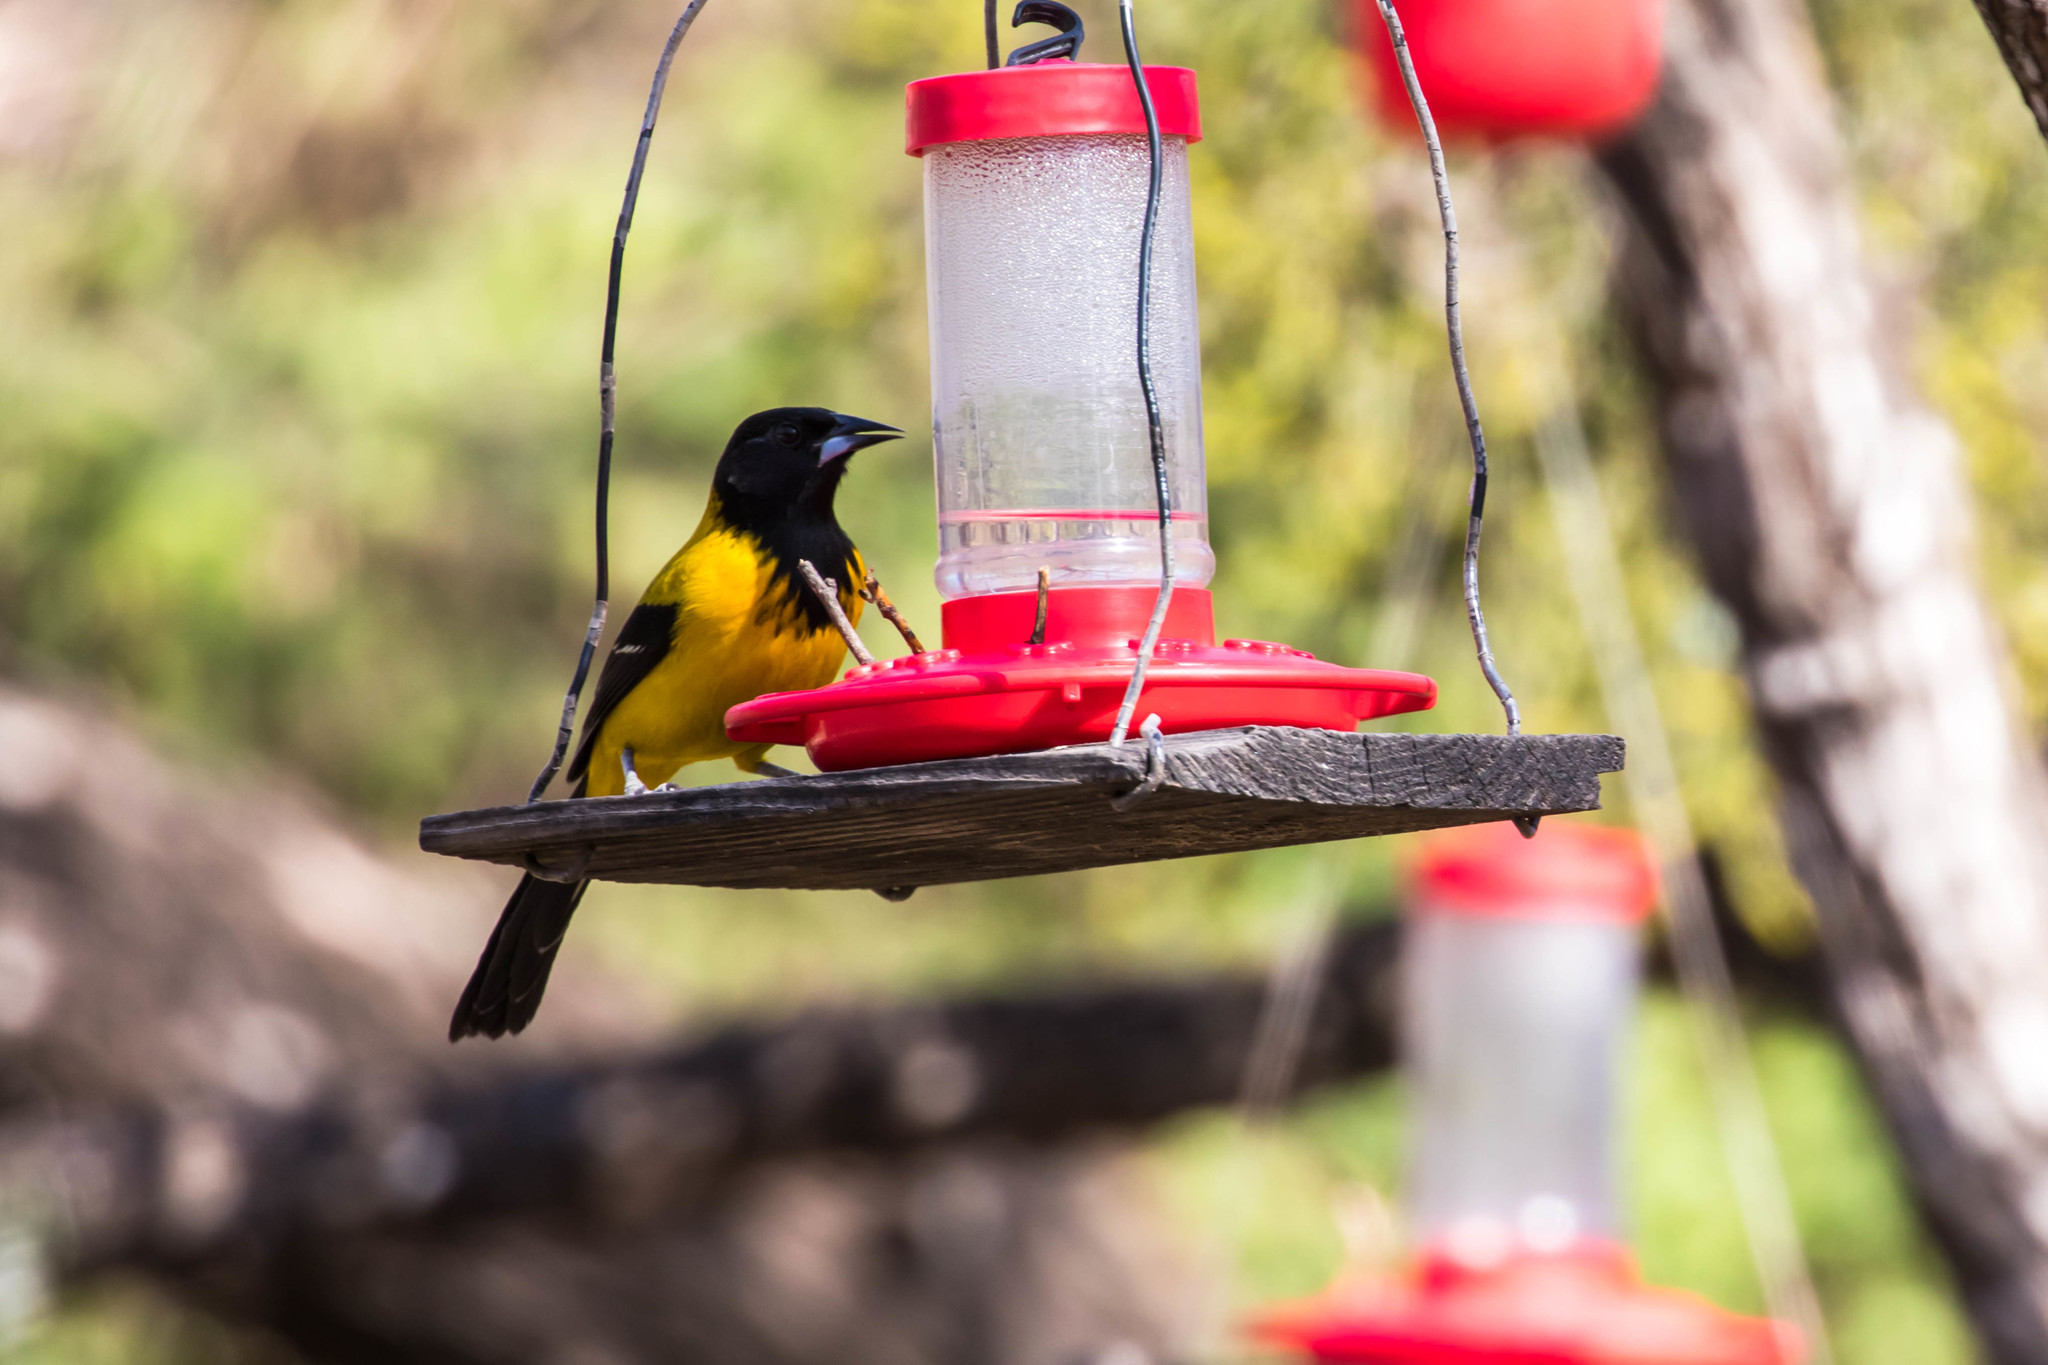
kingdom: Animalia
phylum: Chordata
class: Aves
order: Passeriformes
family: Icteridae
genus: Icterus
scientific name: Icterus graduacauda
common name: Audubon's oriole
